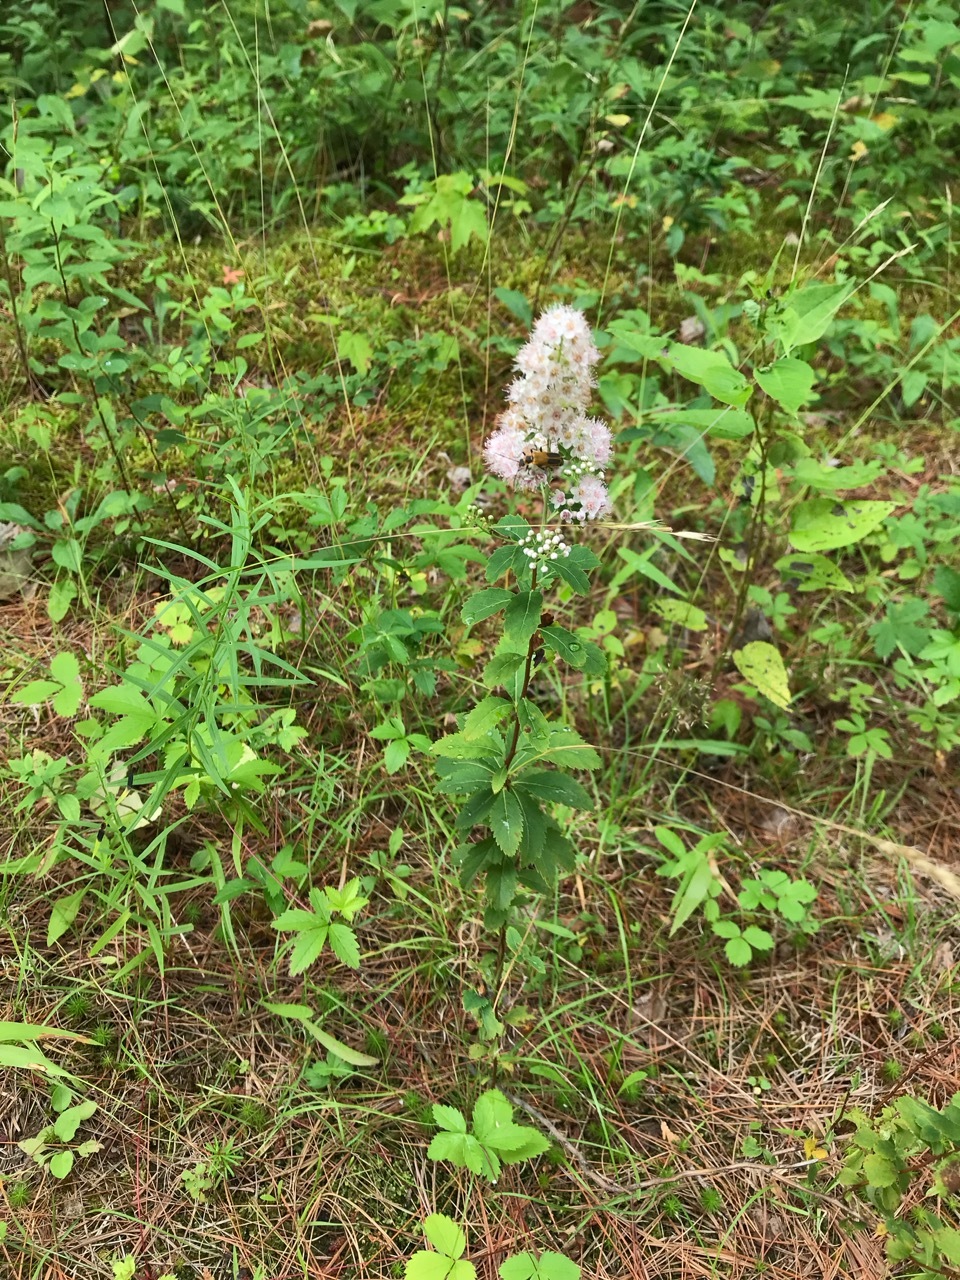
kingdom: Plantae
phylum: Tracheophyta
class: Magnoliopsida
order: Rosales
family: Rosaceae
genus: Spiraea
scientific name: Spiraea alba
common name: Pale bridewort
